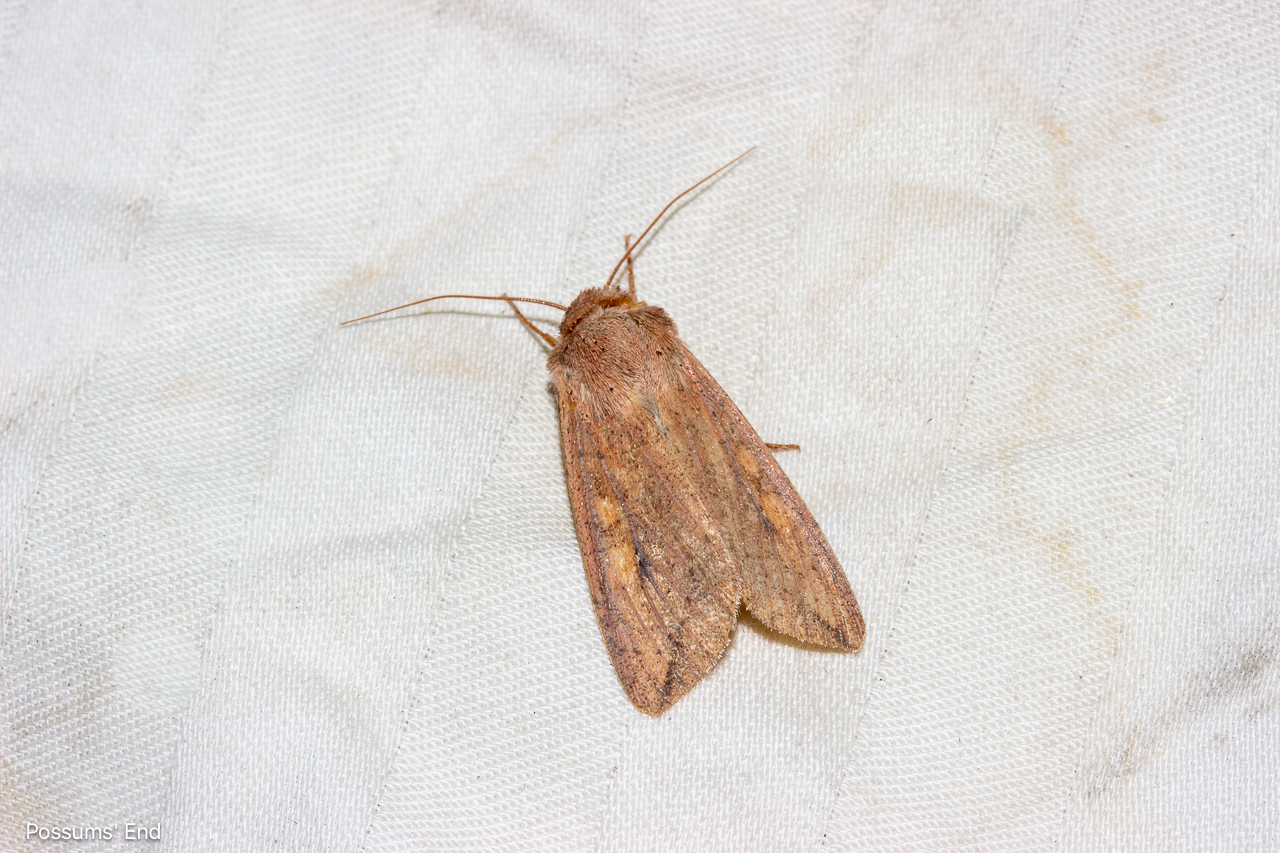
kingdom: Animalia
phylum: Arthropoda
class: Insecta
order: Lepidoptera
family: Noctuidae
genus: Mythimna
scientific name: Mythimna separata
